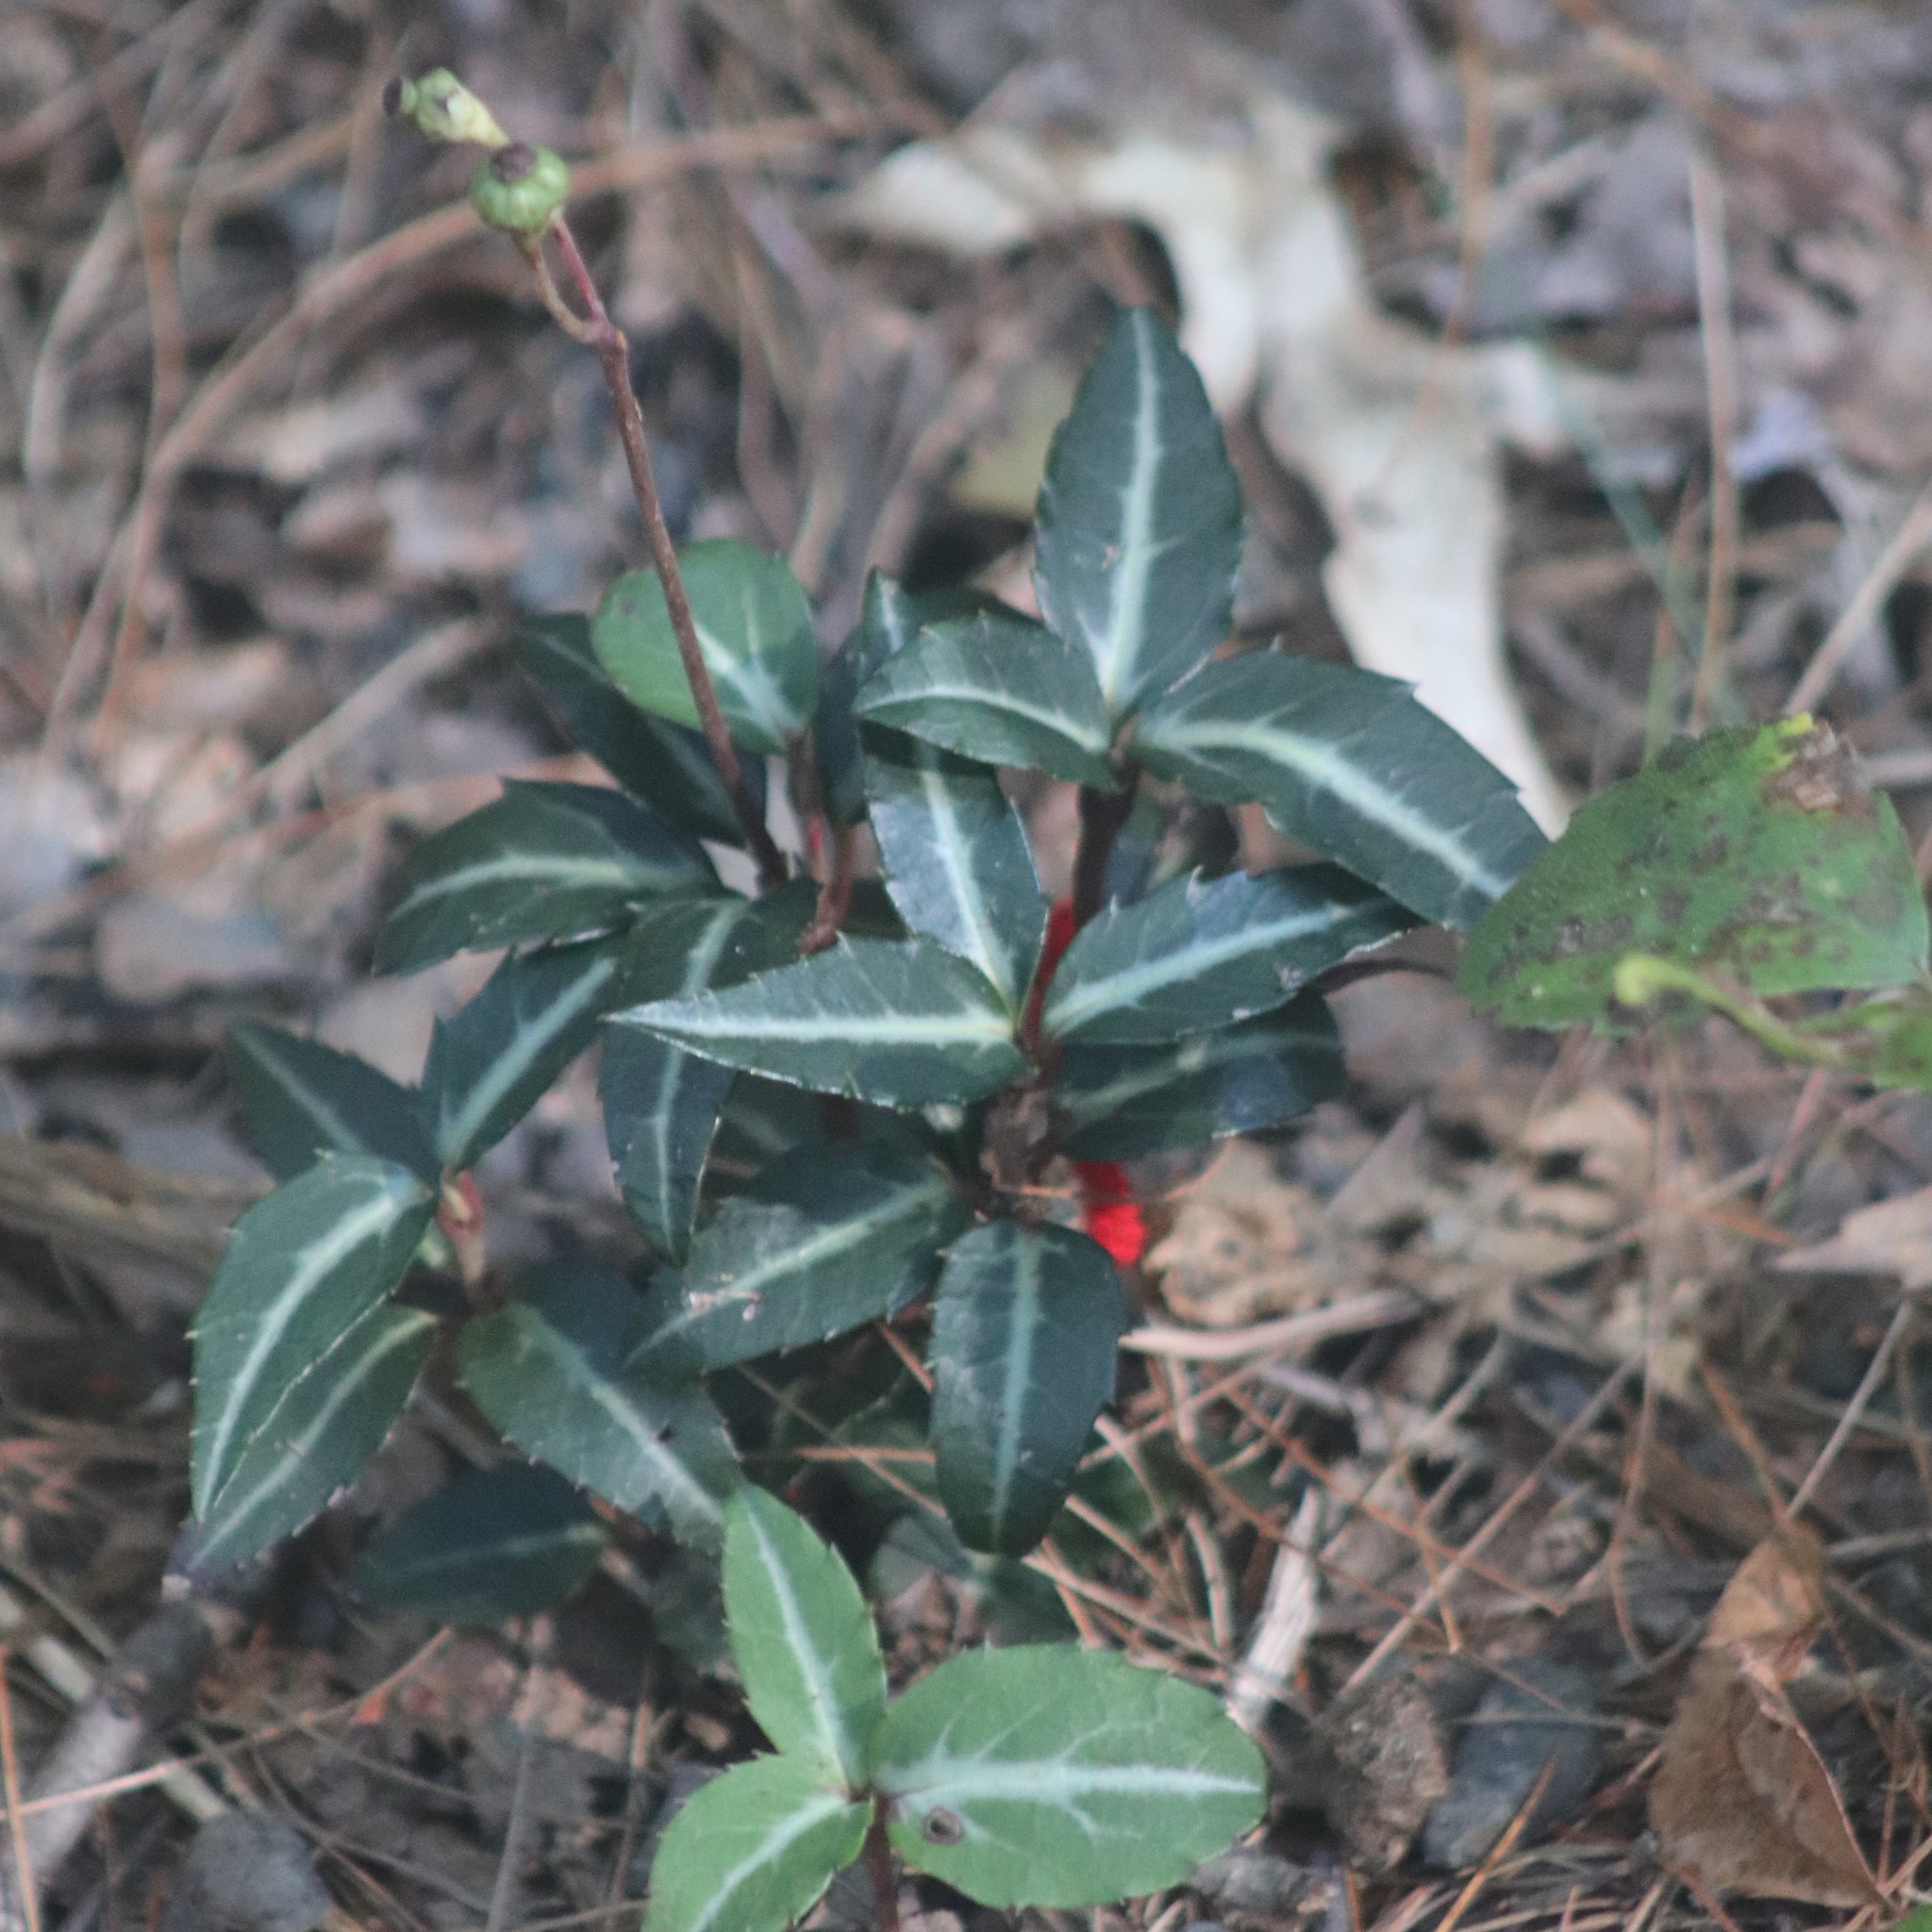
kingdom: Plantae
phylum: Tracheophyta
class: Magnoliopsida
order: Ericales
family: Ericaceae
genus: Chimaphila
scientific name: Chimaphila maculata
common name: Spotted pipsissewa
